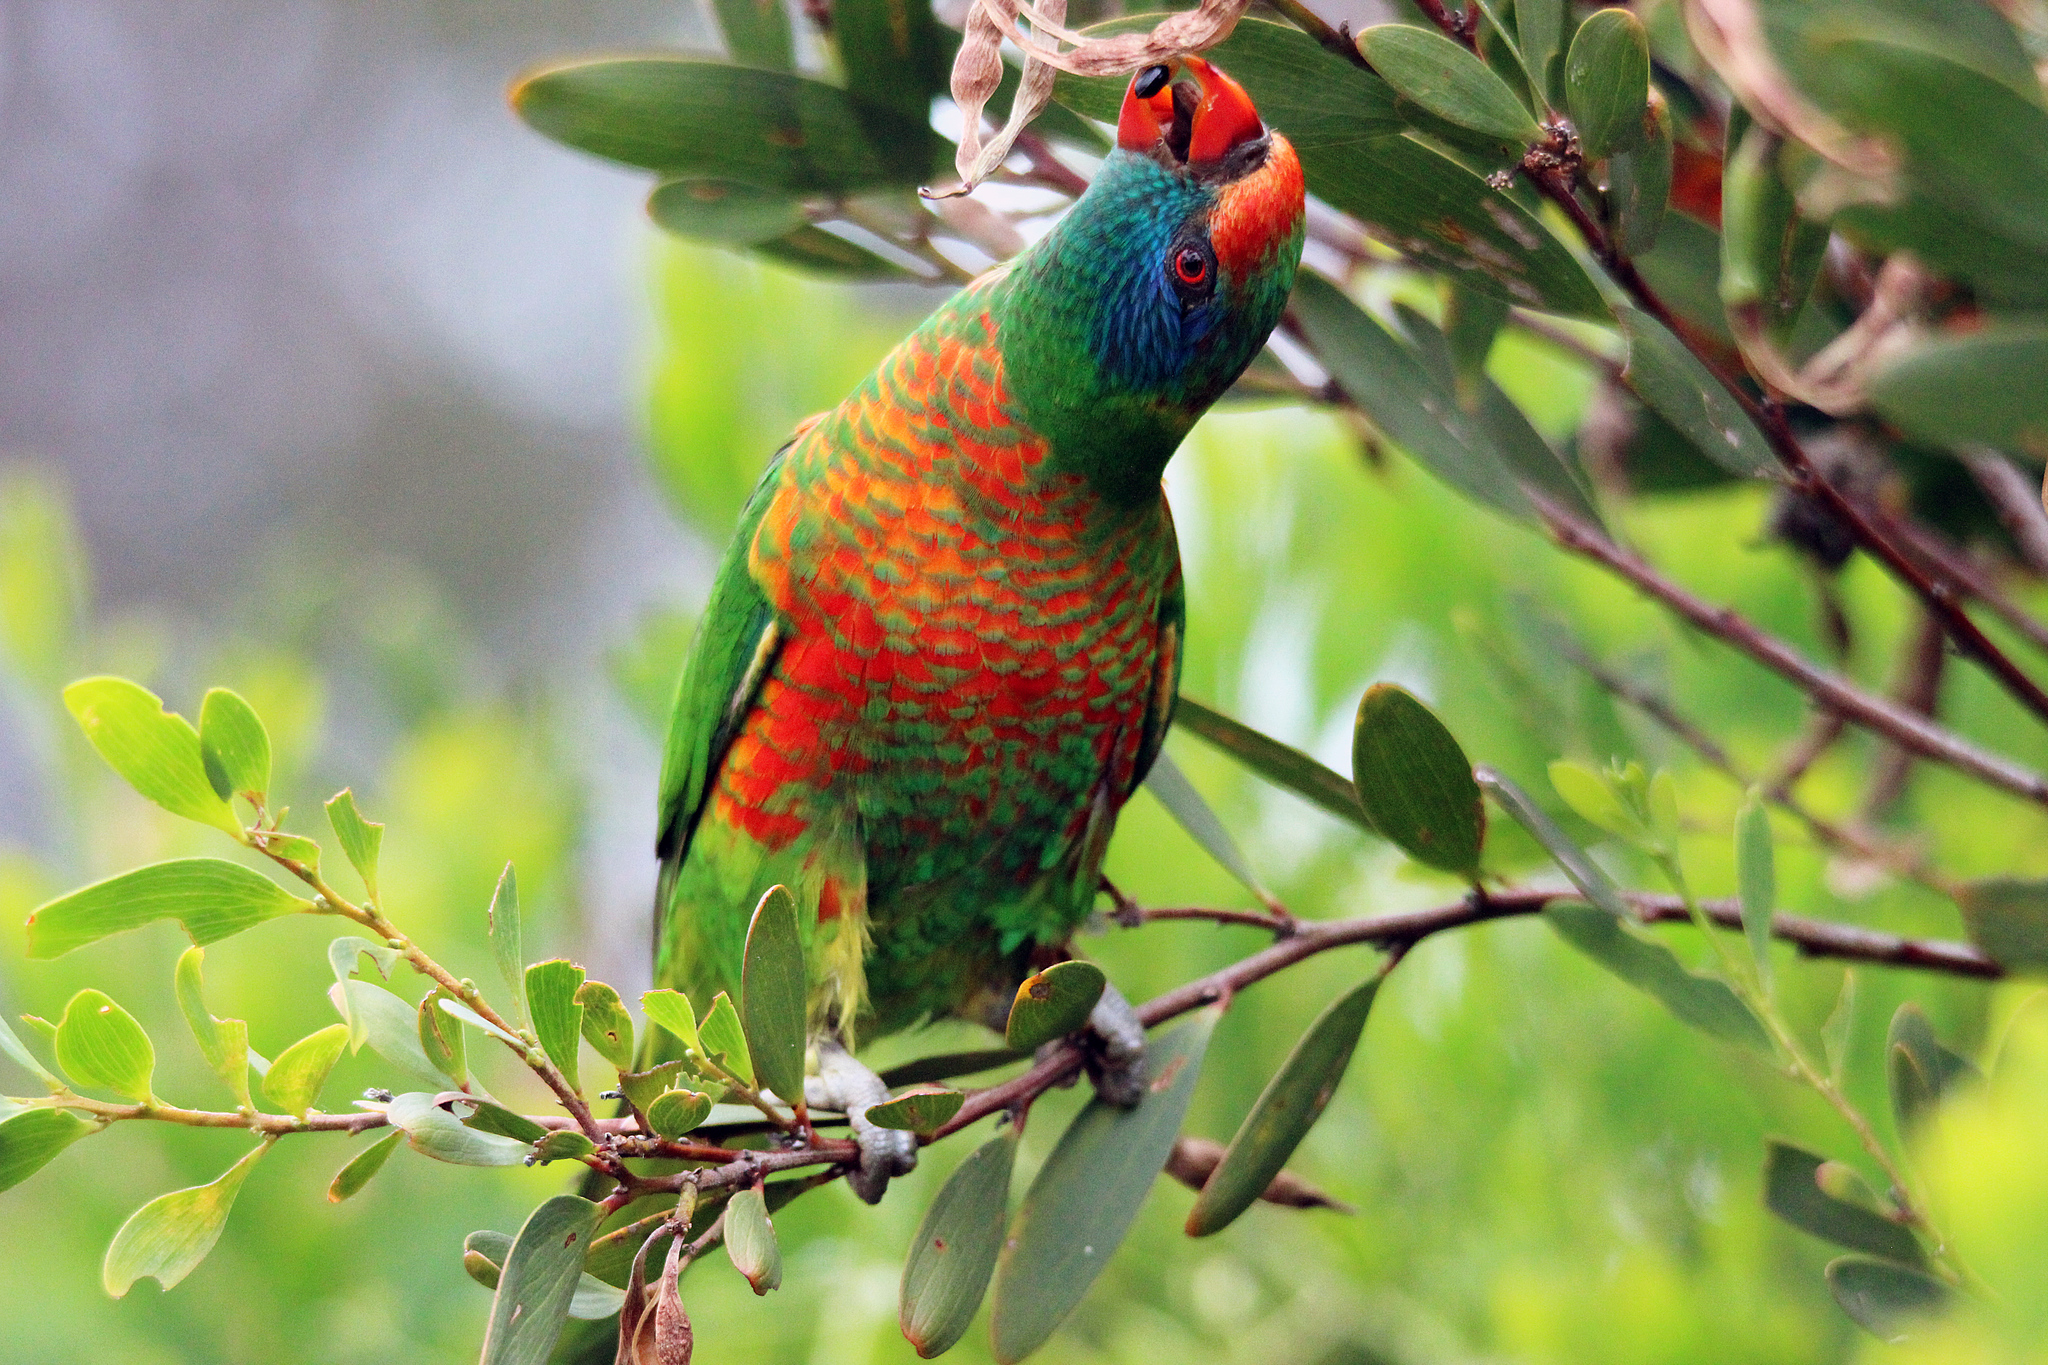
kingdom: Animalia
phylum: Chordata
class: Aves
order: Psittaciformes
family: Psittacidae
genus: Trichoglossus
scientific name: Trichoglossus
